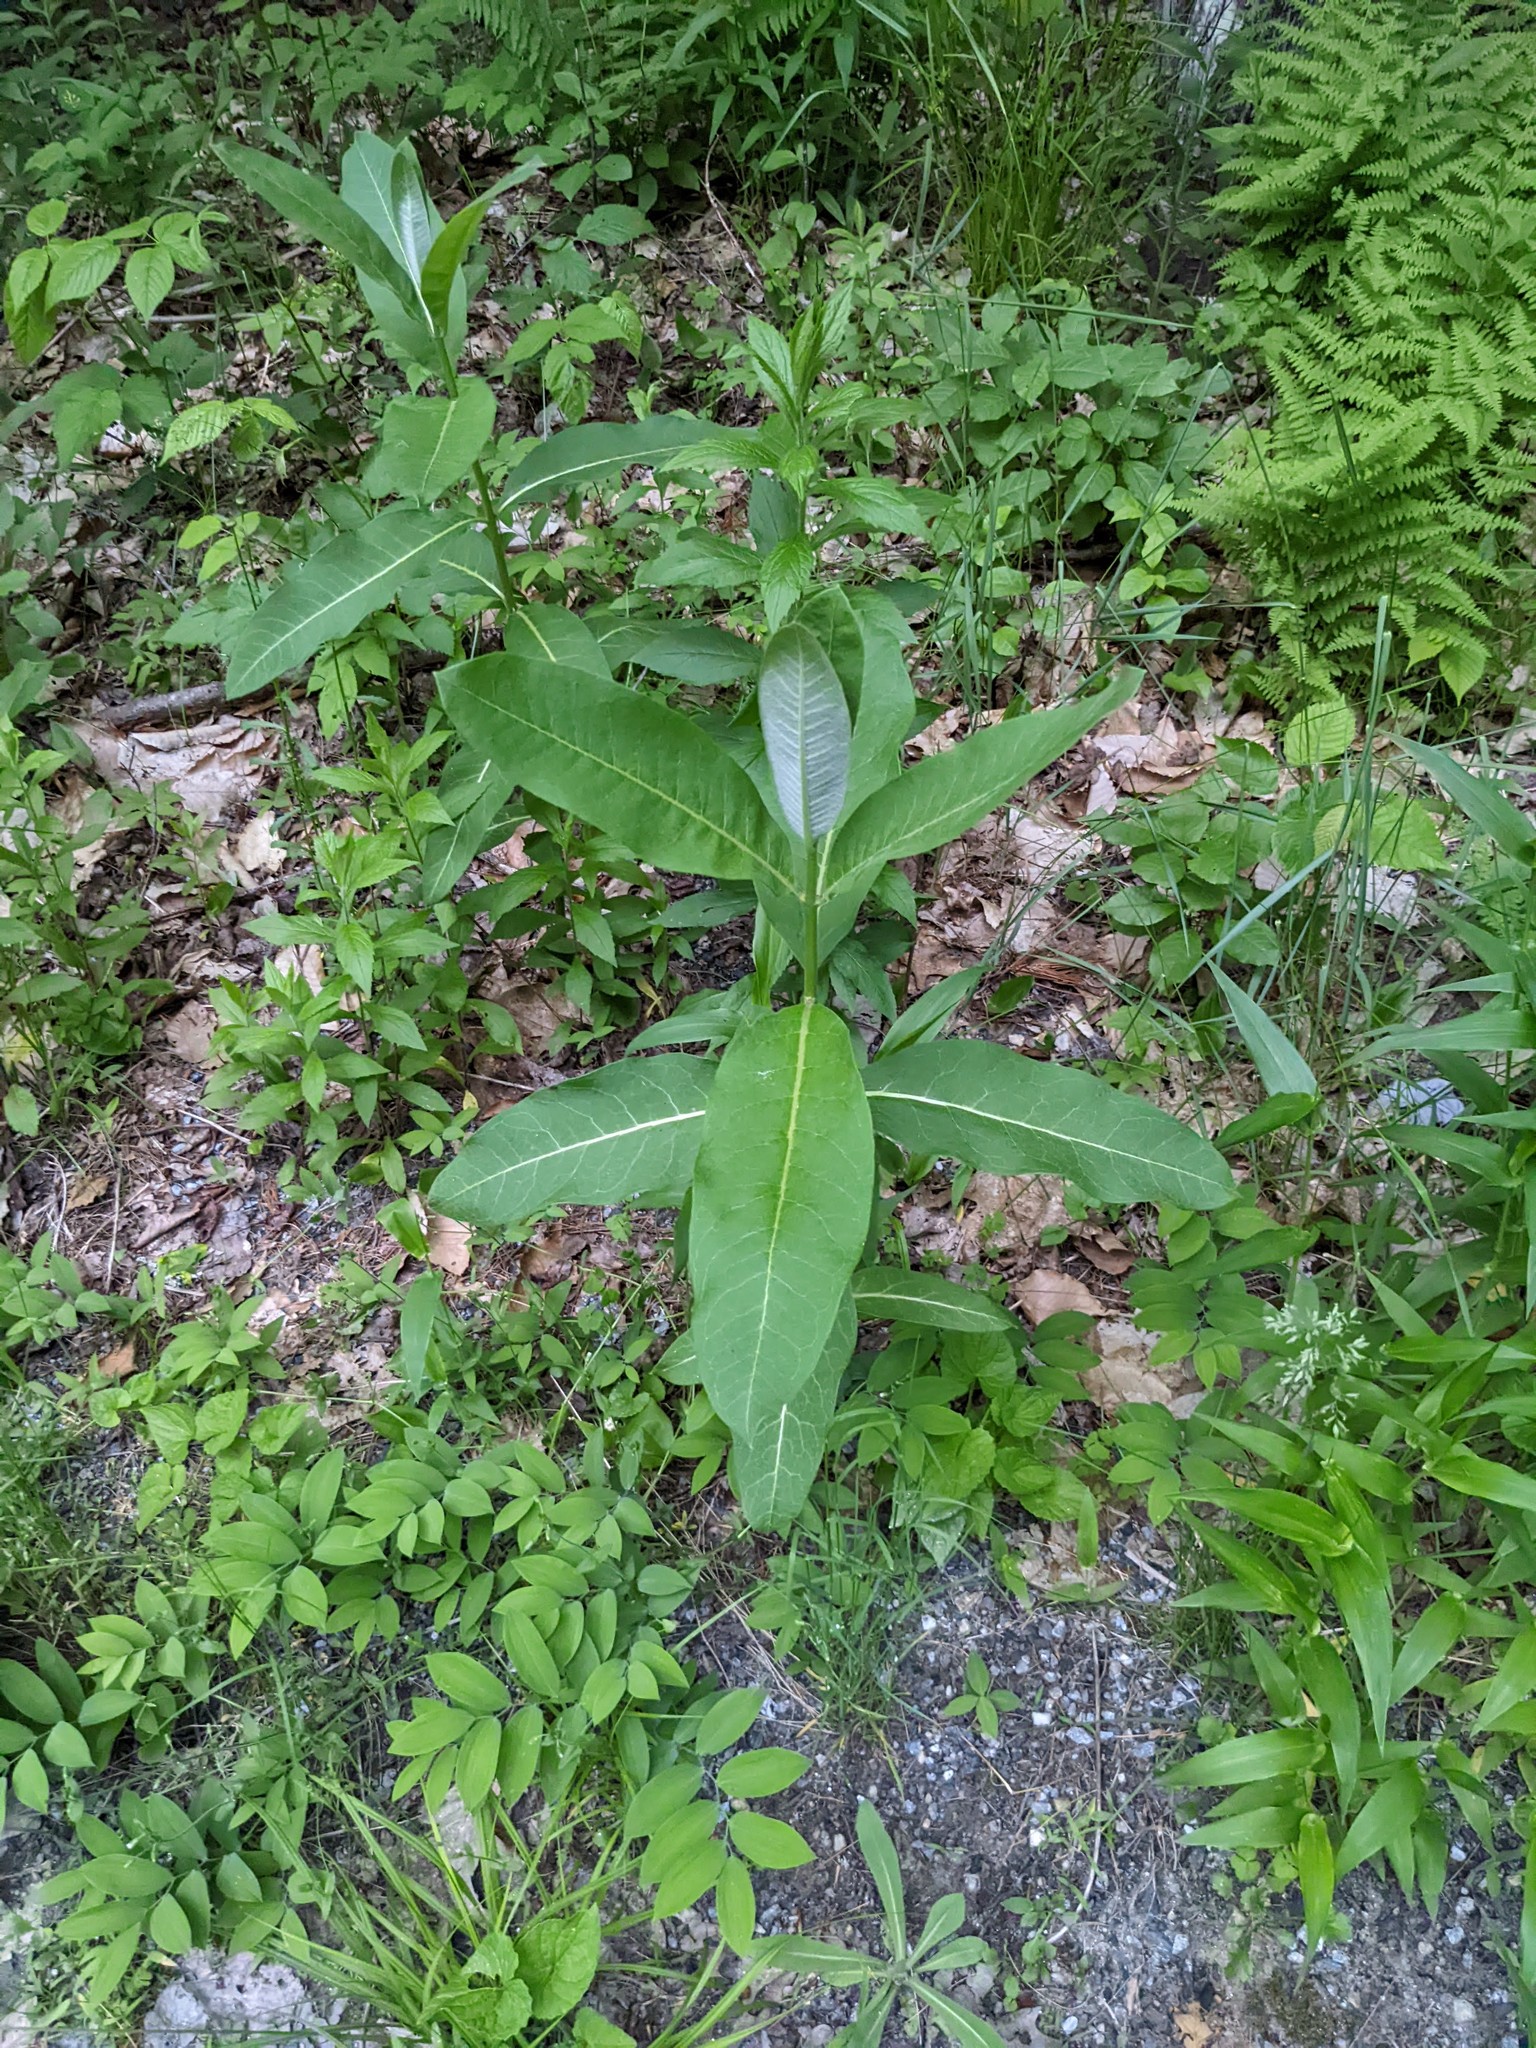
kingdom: Plantae
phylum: Tracheophyta
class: Magnoliopsida
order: Gentianales
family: Apocynaceae
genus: Asclepias
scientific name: Asclepias syriaca
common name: Common milkweed
